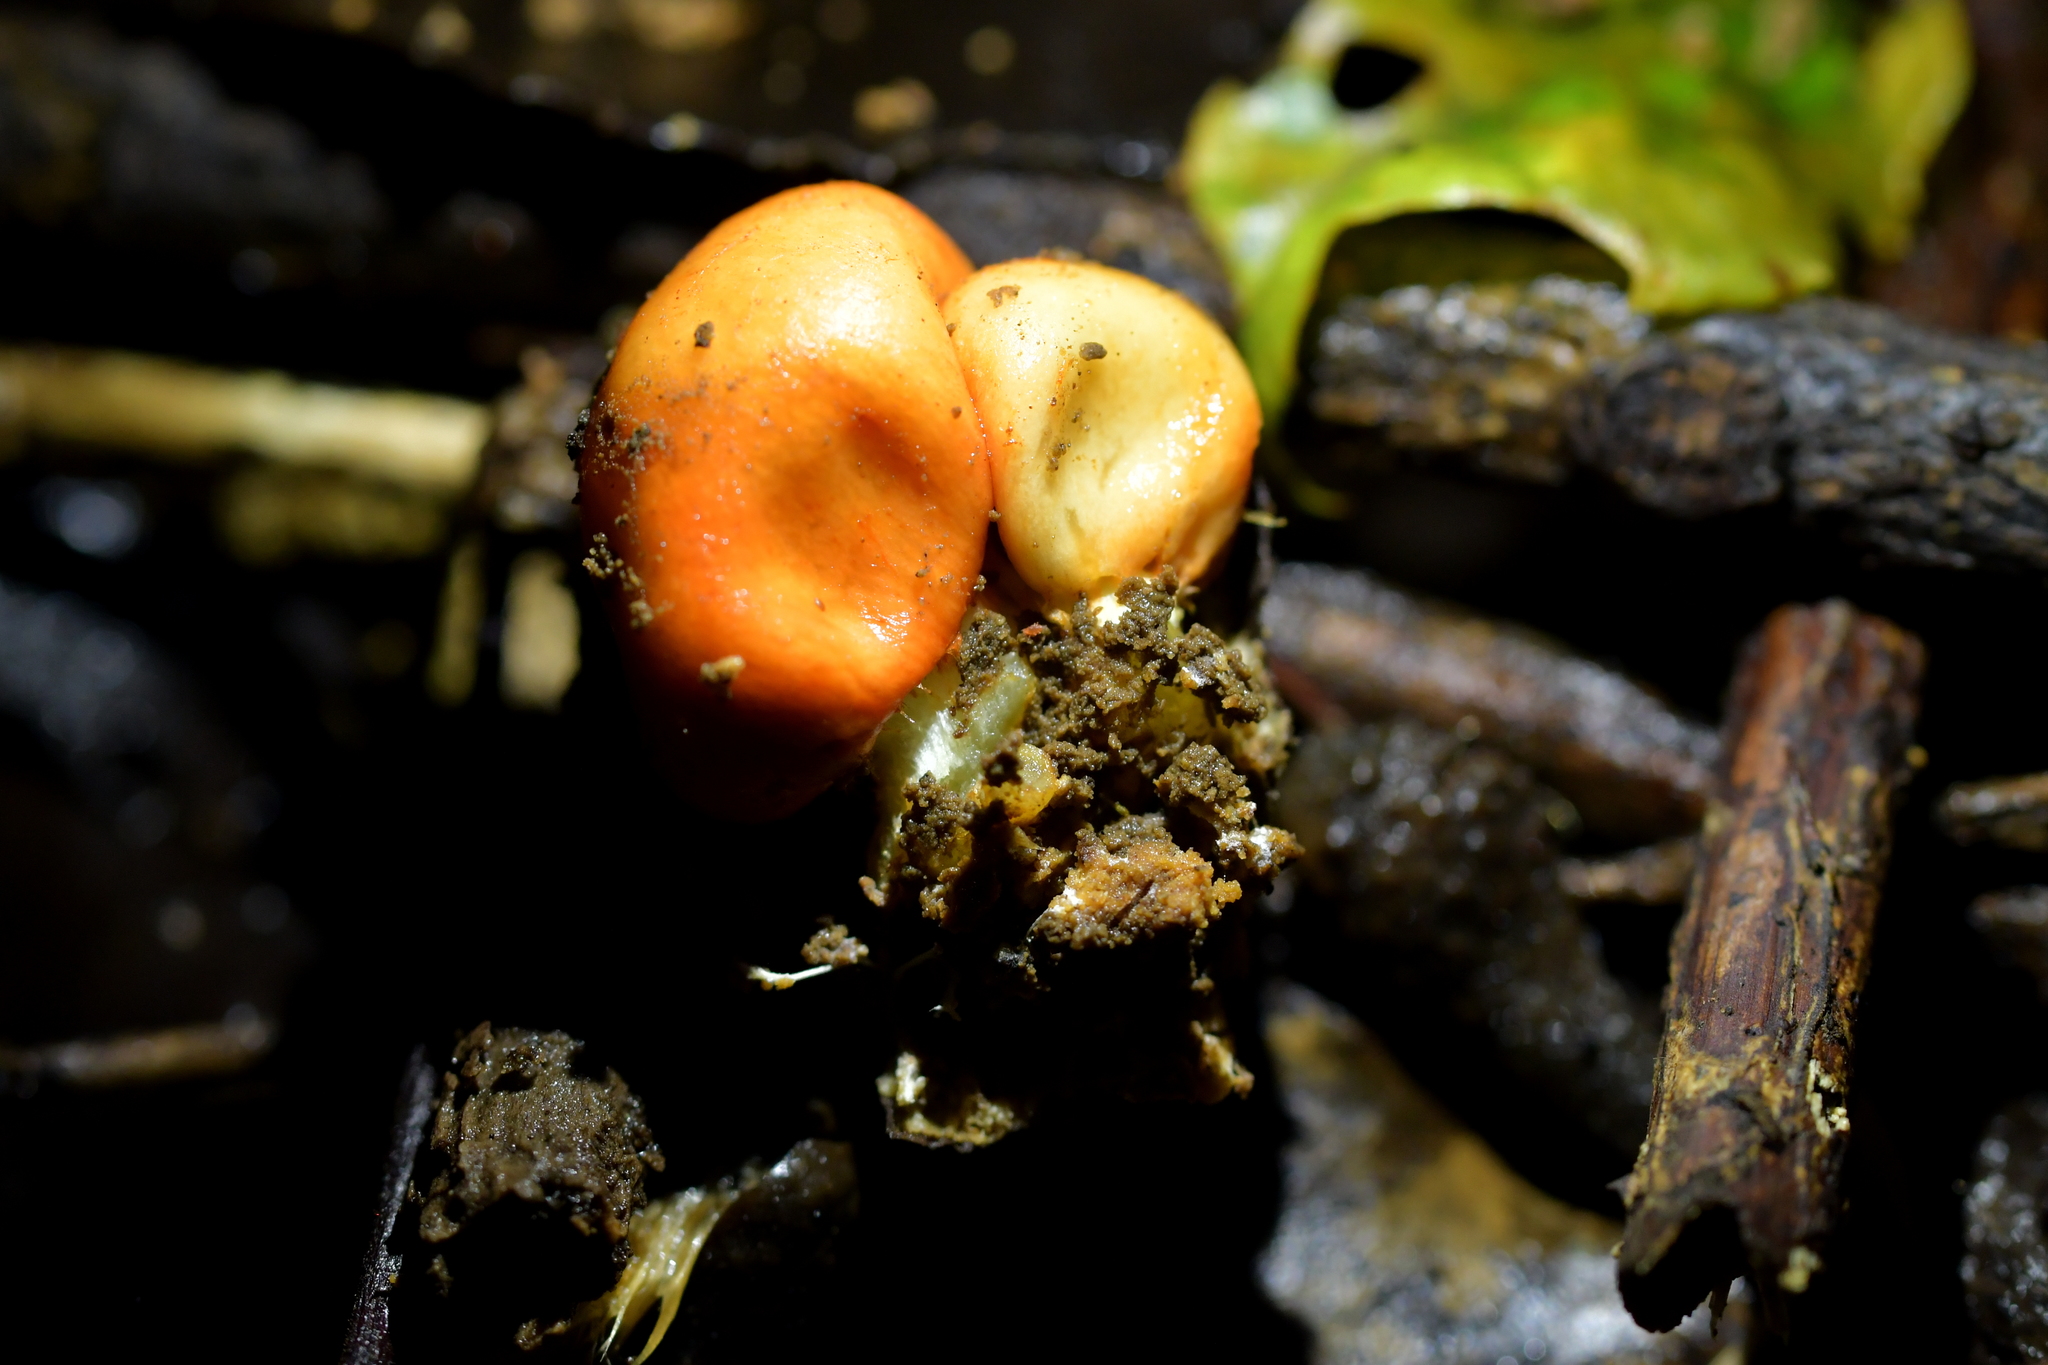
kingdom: Fungi
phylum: Basidiomycota
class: Agaricomycetes
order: Agaricales
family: Strophariaceae
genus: Leratiomyces
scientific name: Leratiomyces erythrocephalus
